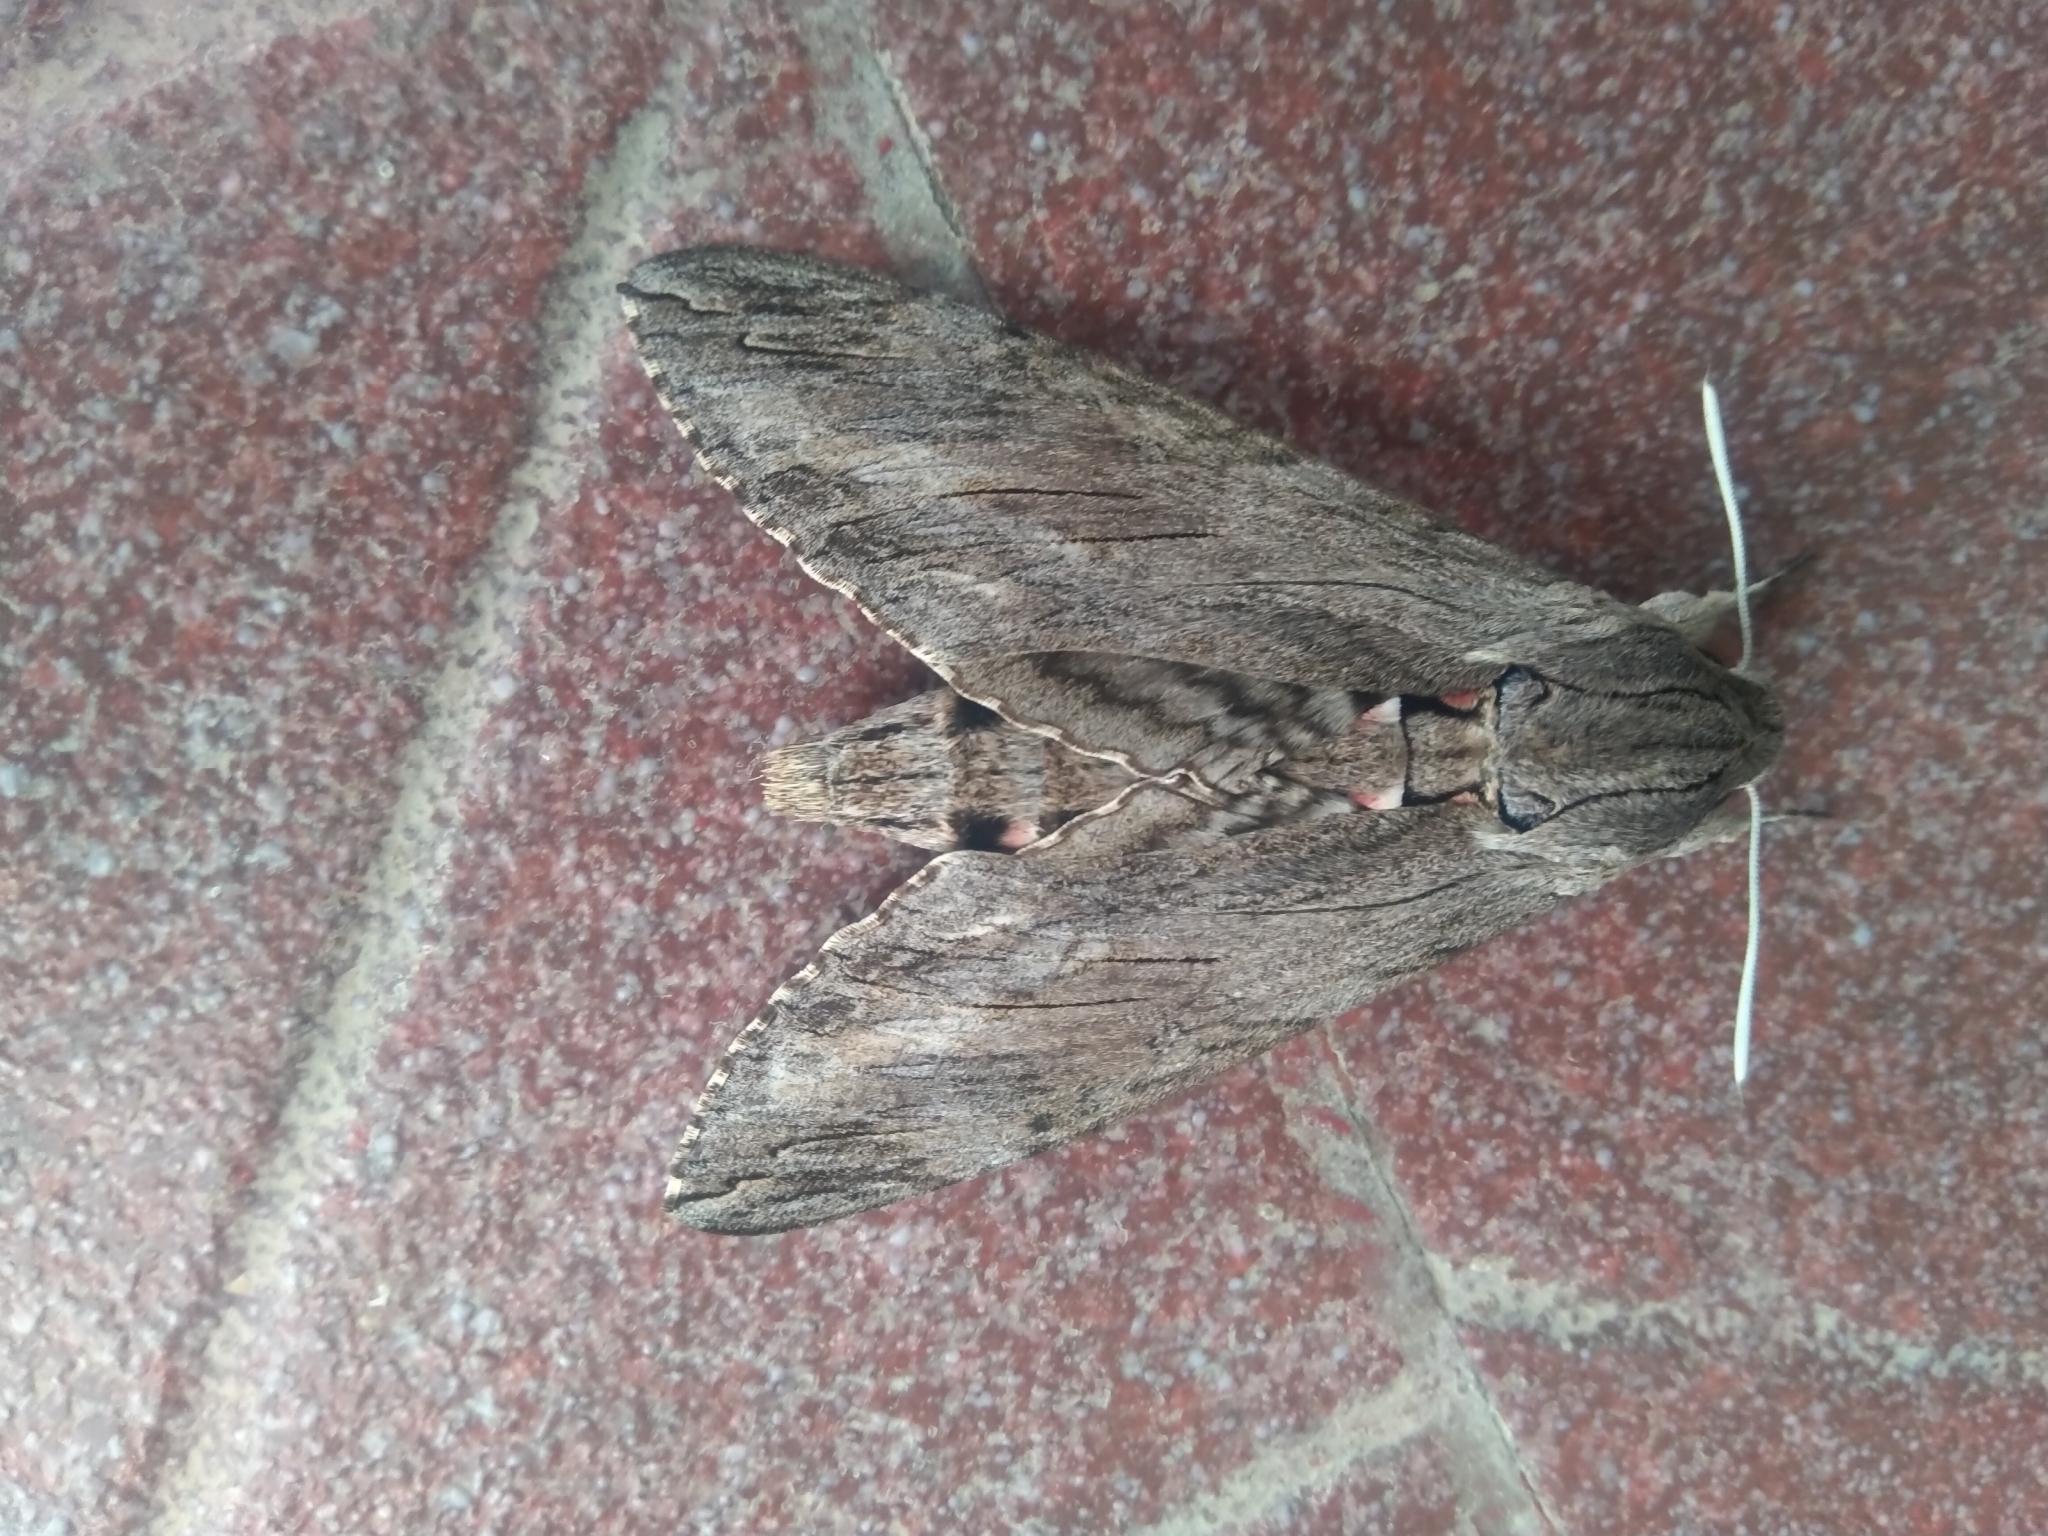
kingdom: Animalia
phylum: Arthropoda
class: Insecta
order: Lepidoptera
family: Sphingidae
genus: Agrius
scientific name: Agrius convolvuli
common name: Convolvulus hawkmoth
